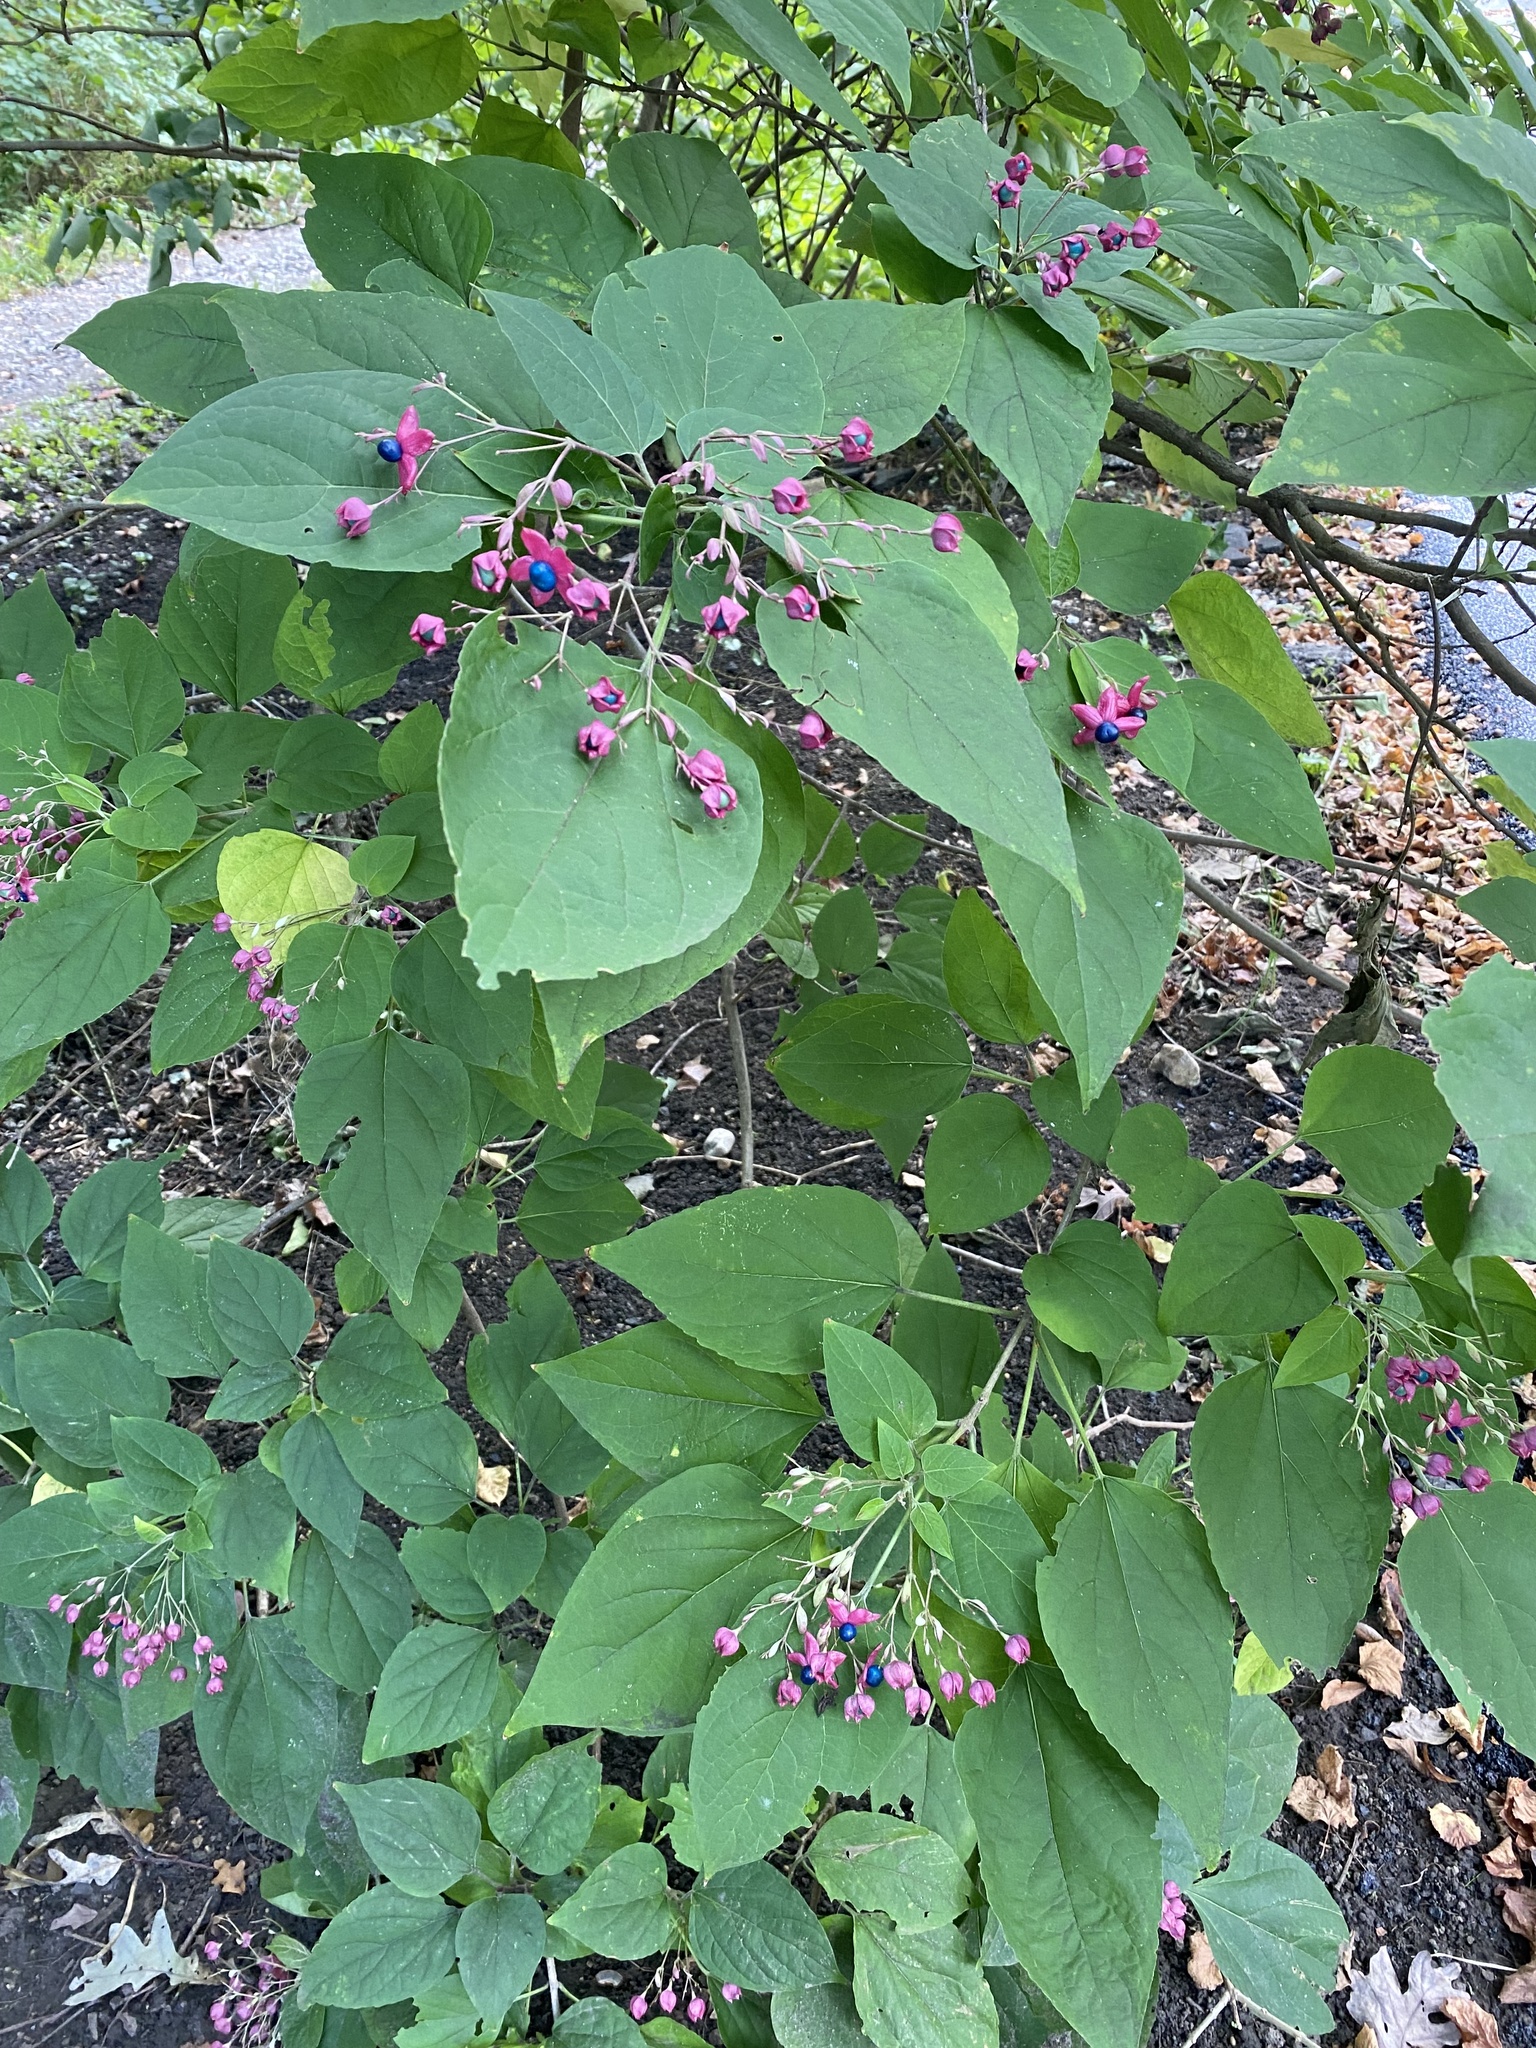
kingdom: Plantae
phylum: Tracheophyta
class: Magnoliopsida
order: Lamiales
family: Lamiaceae
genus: Clerodendrum
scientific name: Clerodendrum trichotomum
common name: Harlequin glorybower
